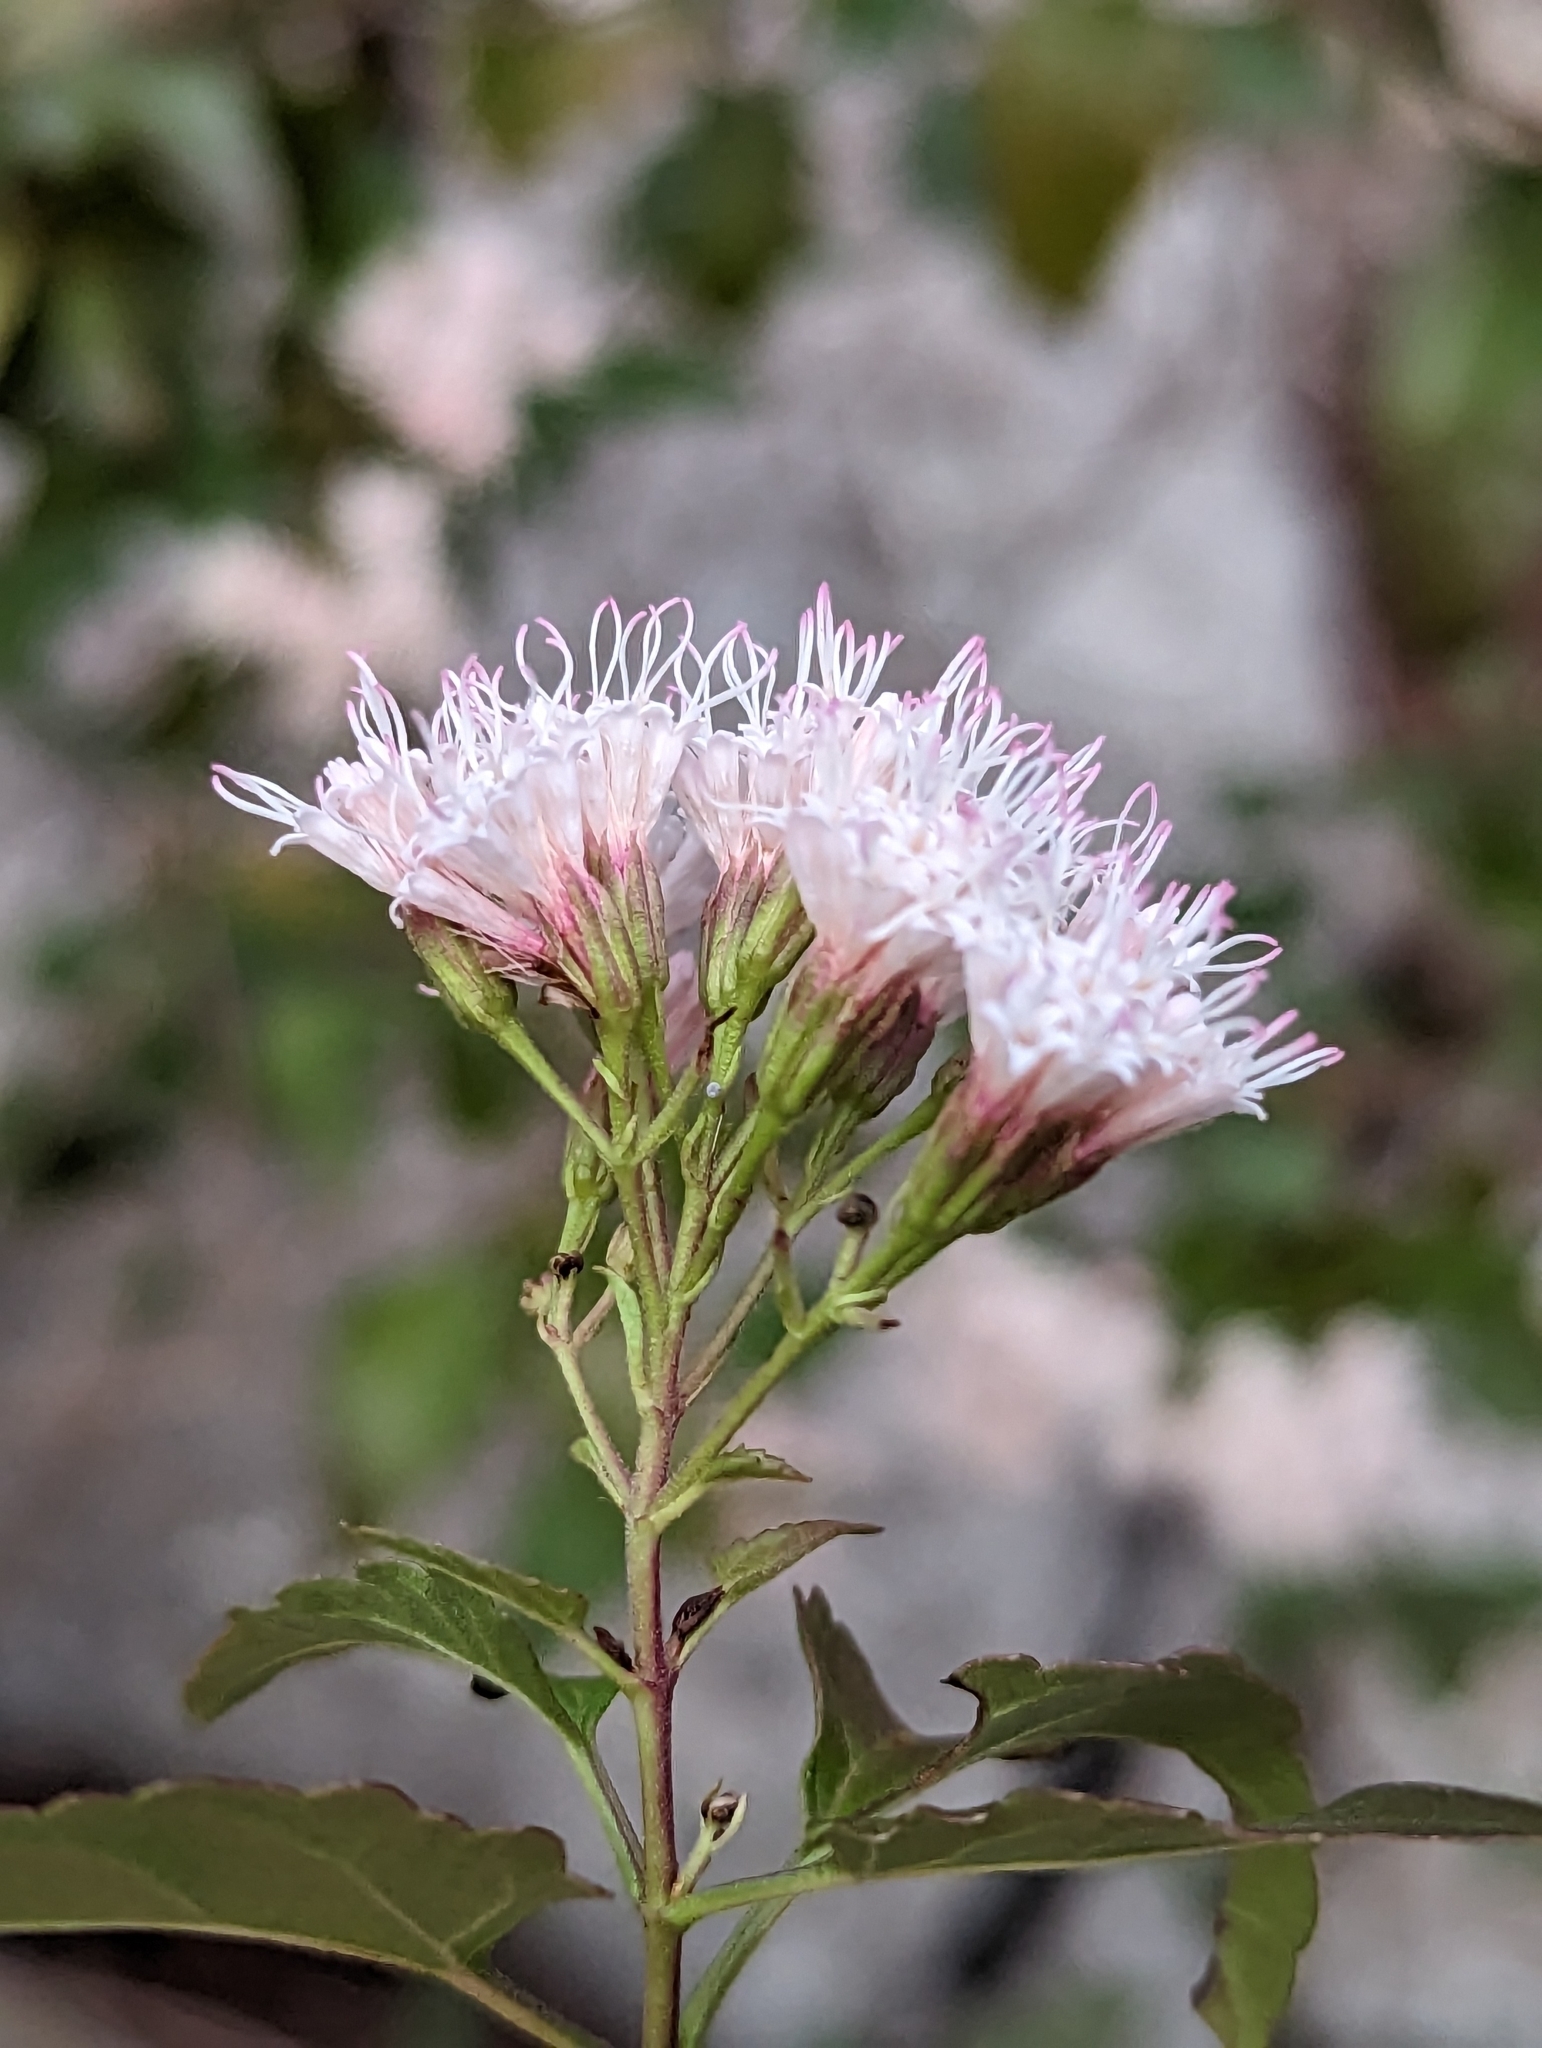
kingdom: Plantae
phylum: Tracheophyta
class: Magnoliopsida
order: Asterales
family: Asteraceae
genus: Ageratina
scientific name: Ageratina havanensis
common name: Havana snakeroot
